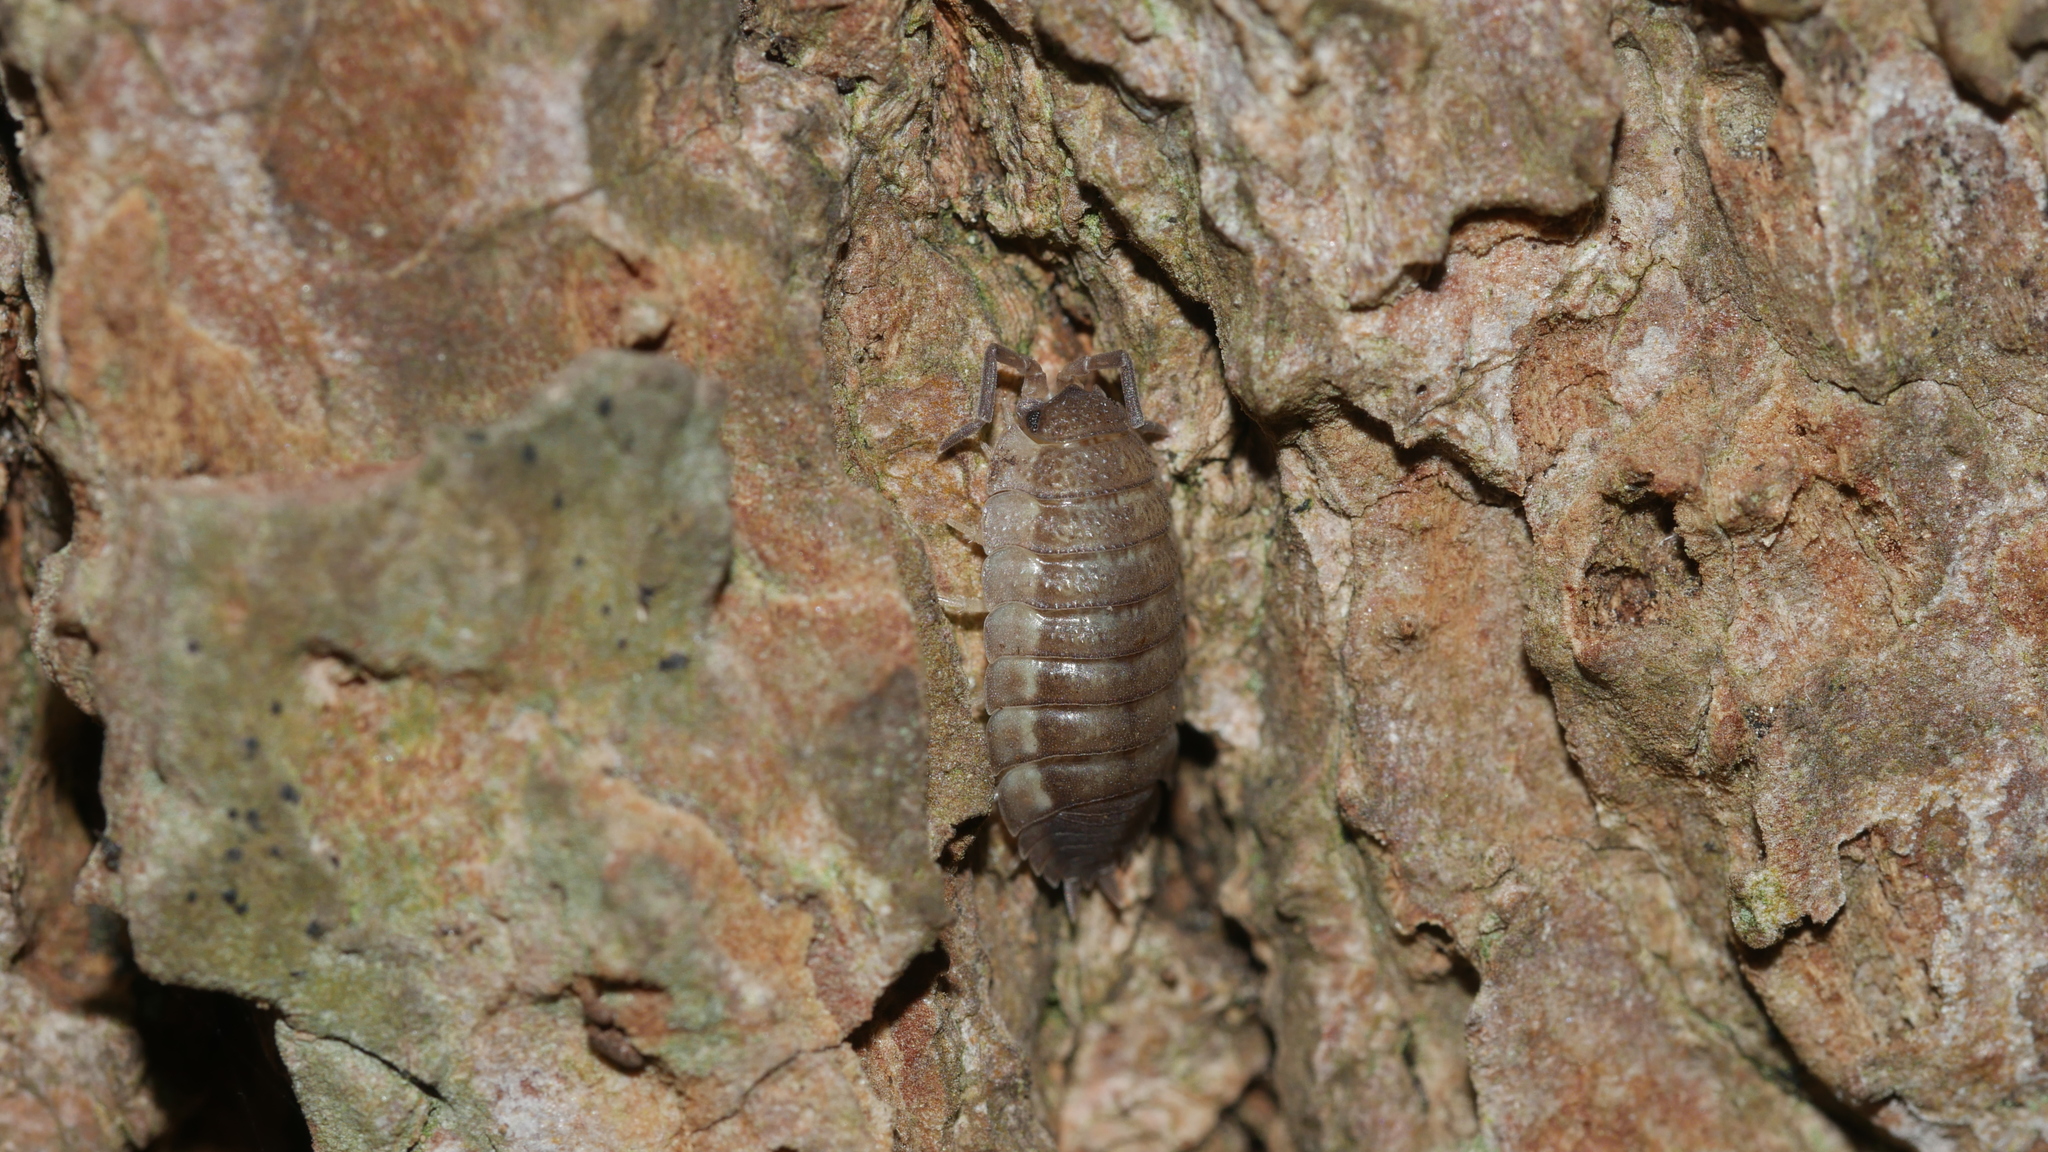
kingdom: Animalia
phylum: Arthropoda
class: Malacostraca
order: Isopoda
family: Porcellionidae
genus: Porcellio
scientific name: Porcellio scaber
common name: Common rough woodlouse
